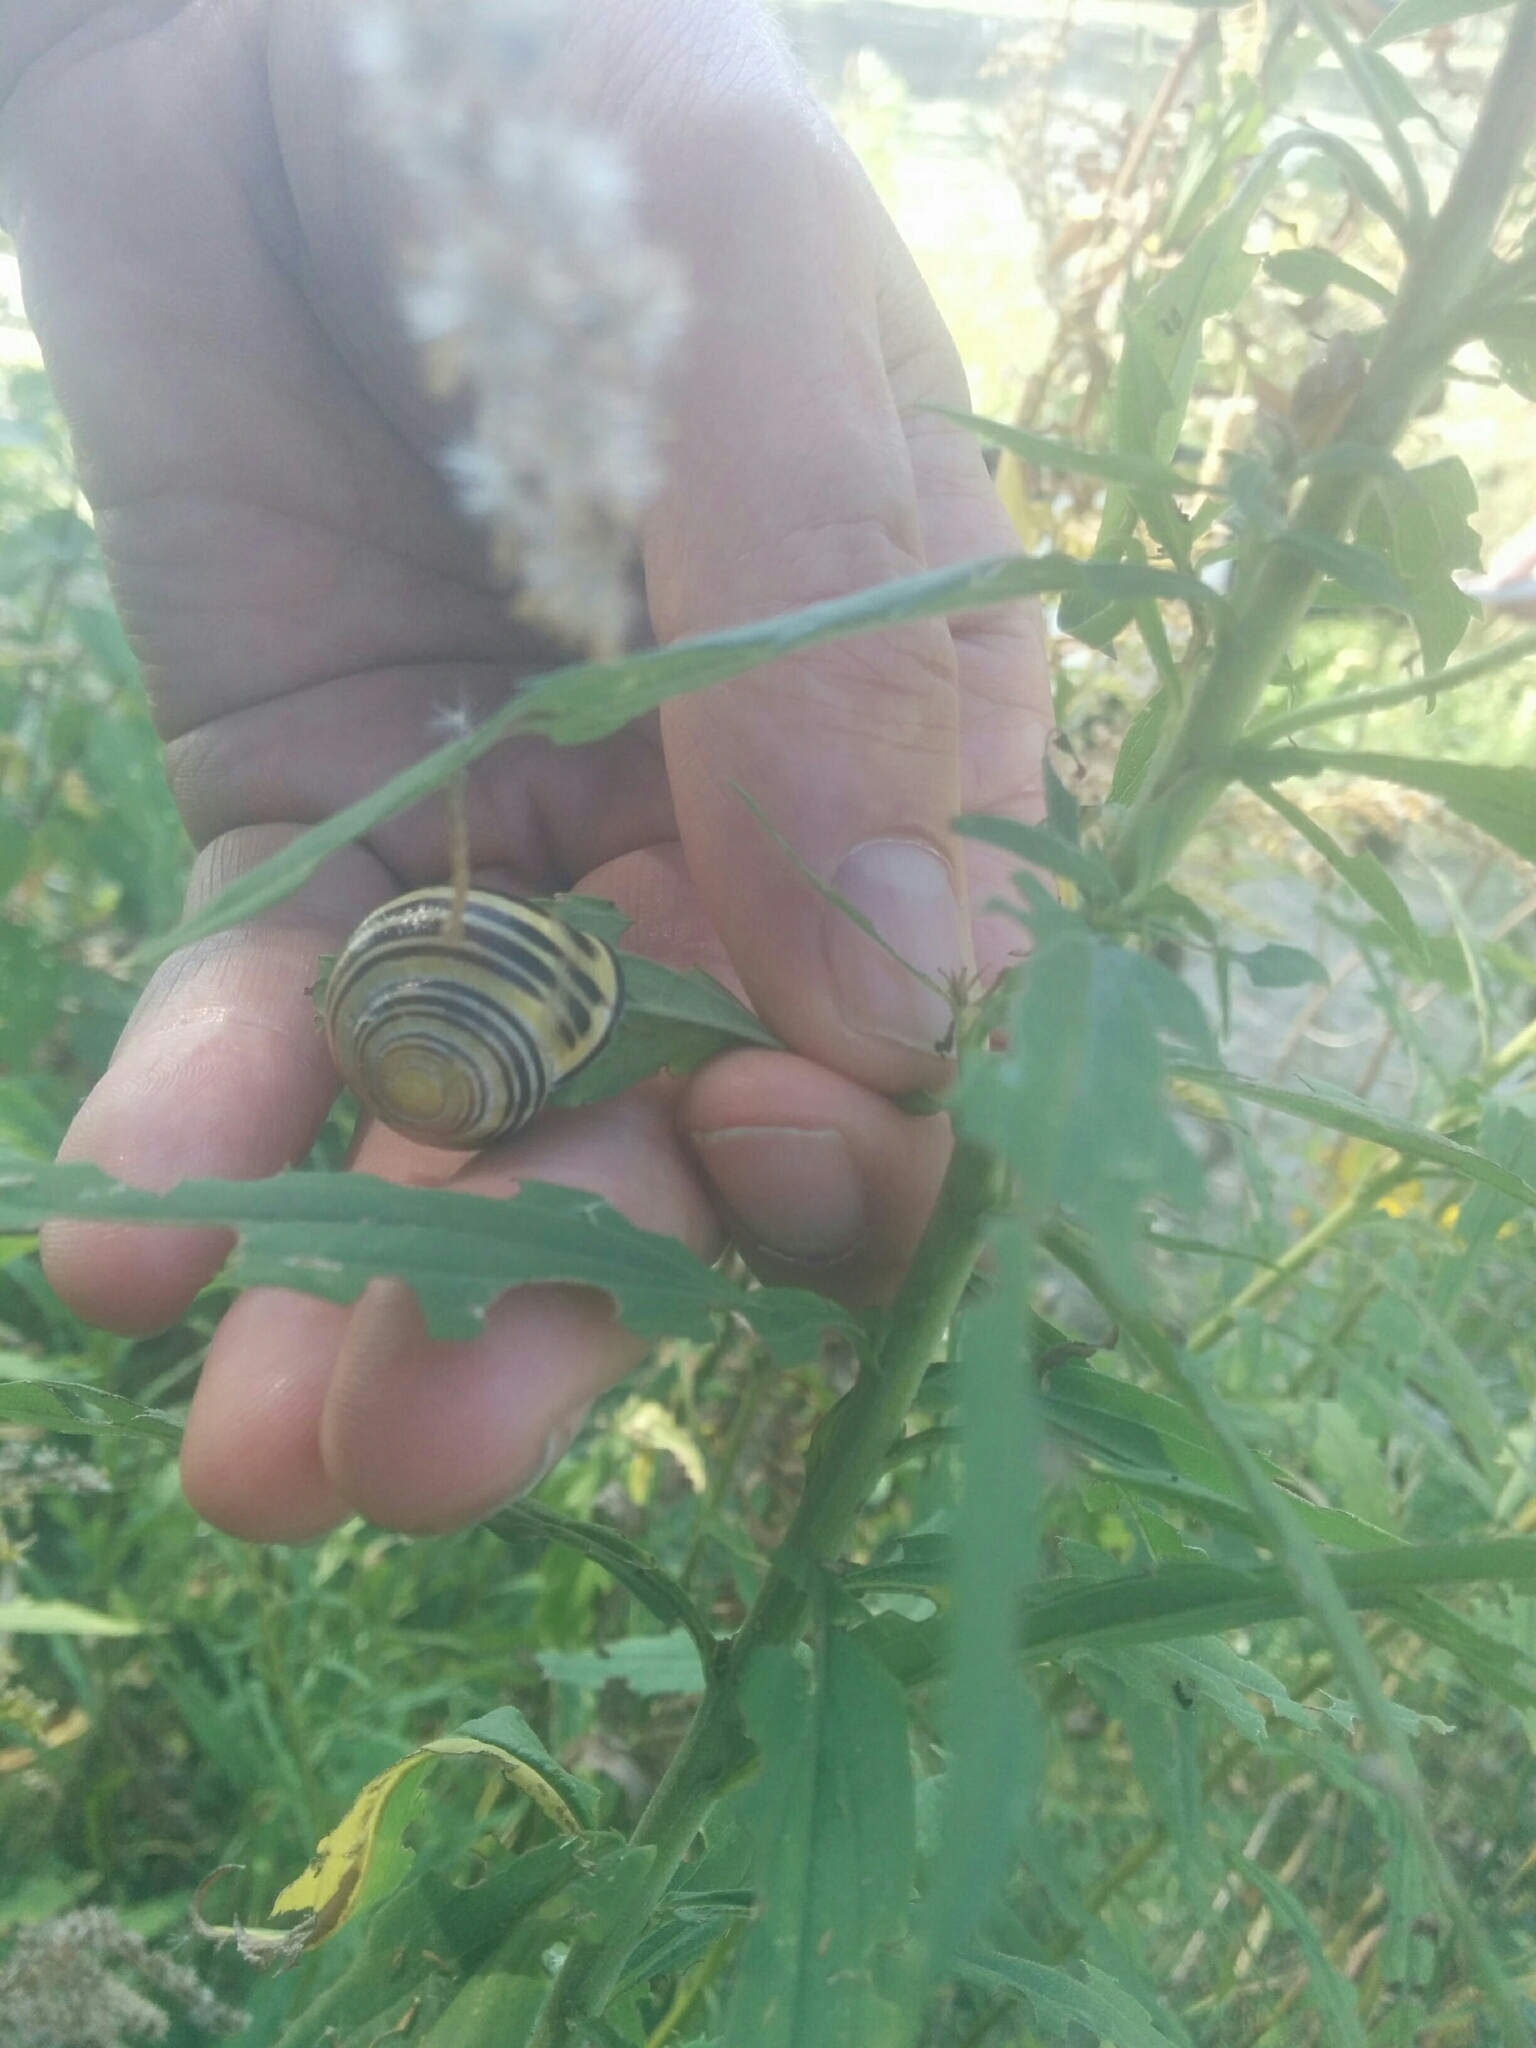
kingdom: Animalia
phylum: Mollusca
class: Gastropoda
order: Stylommatophora
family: Helicidae
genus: Cepaea
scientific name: Cepaea nemoralis
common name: Grovesnail
